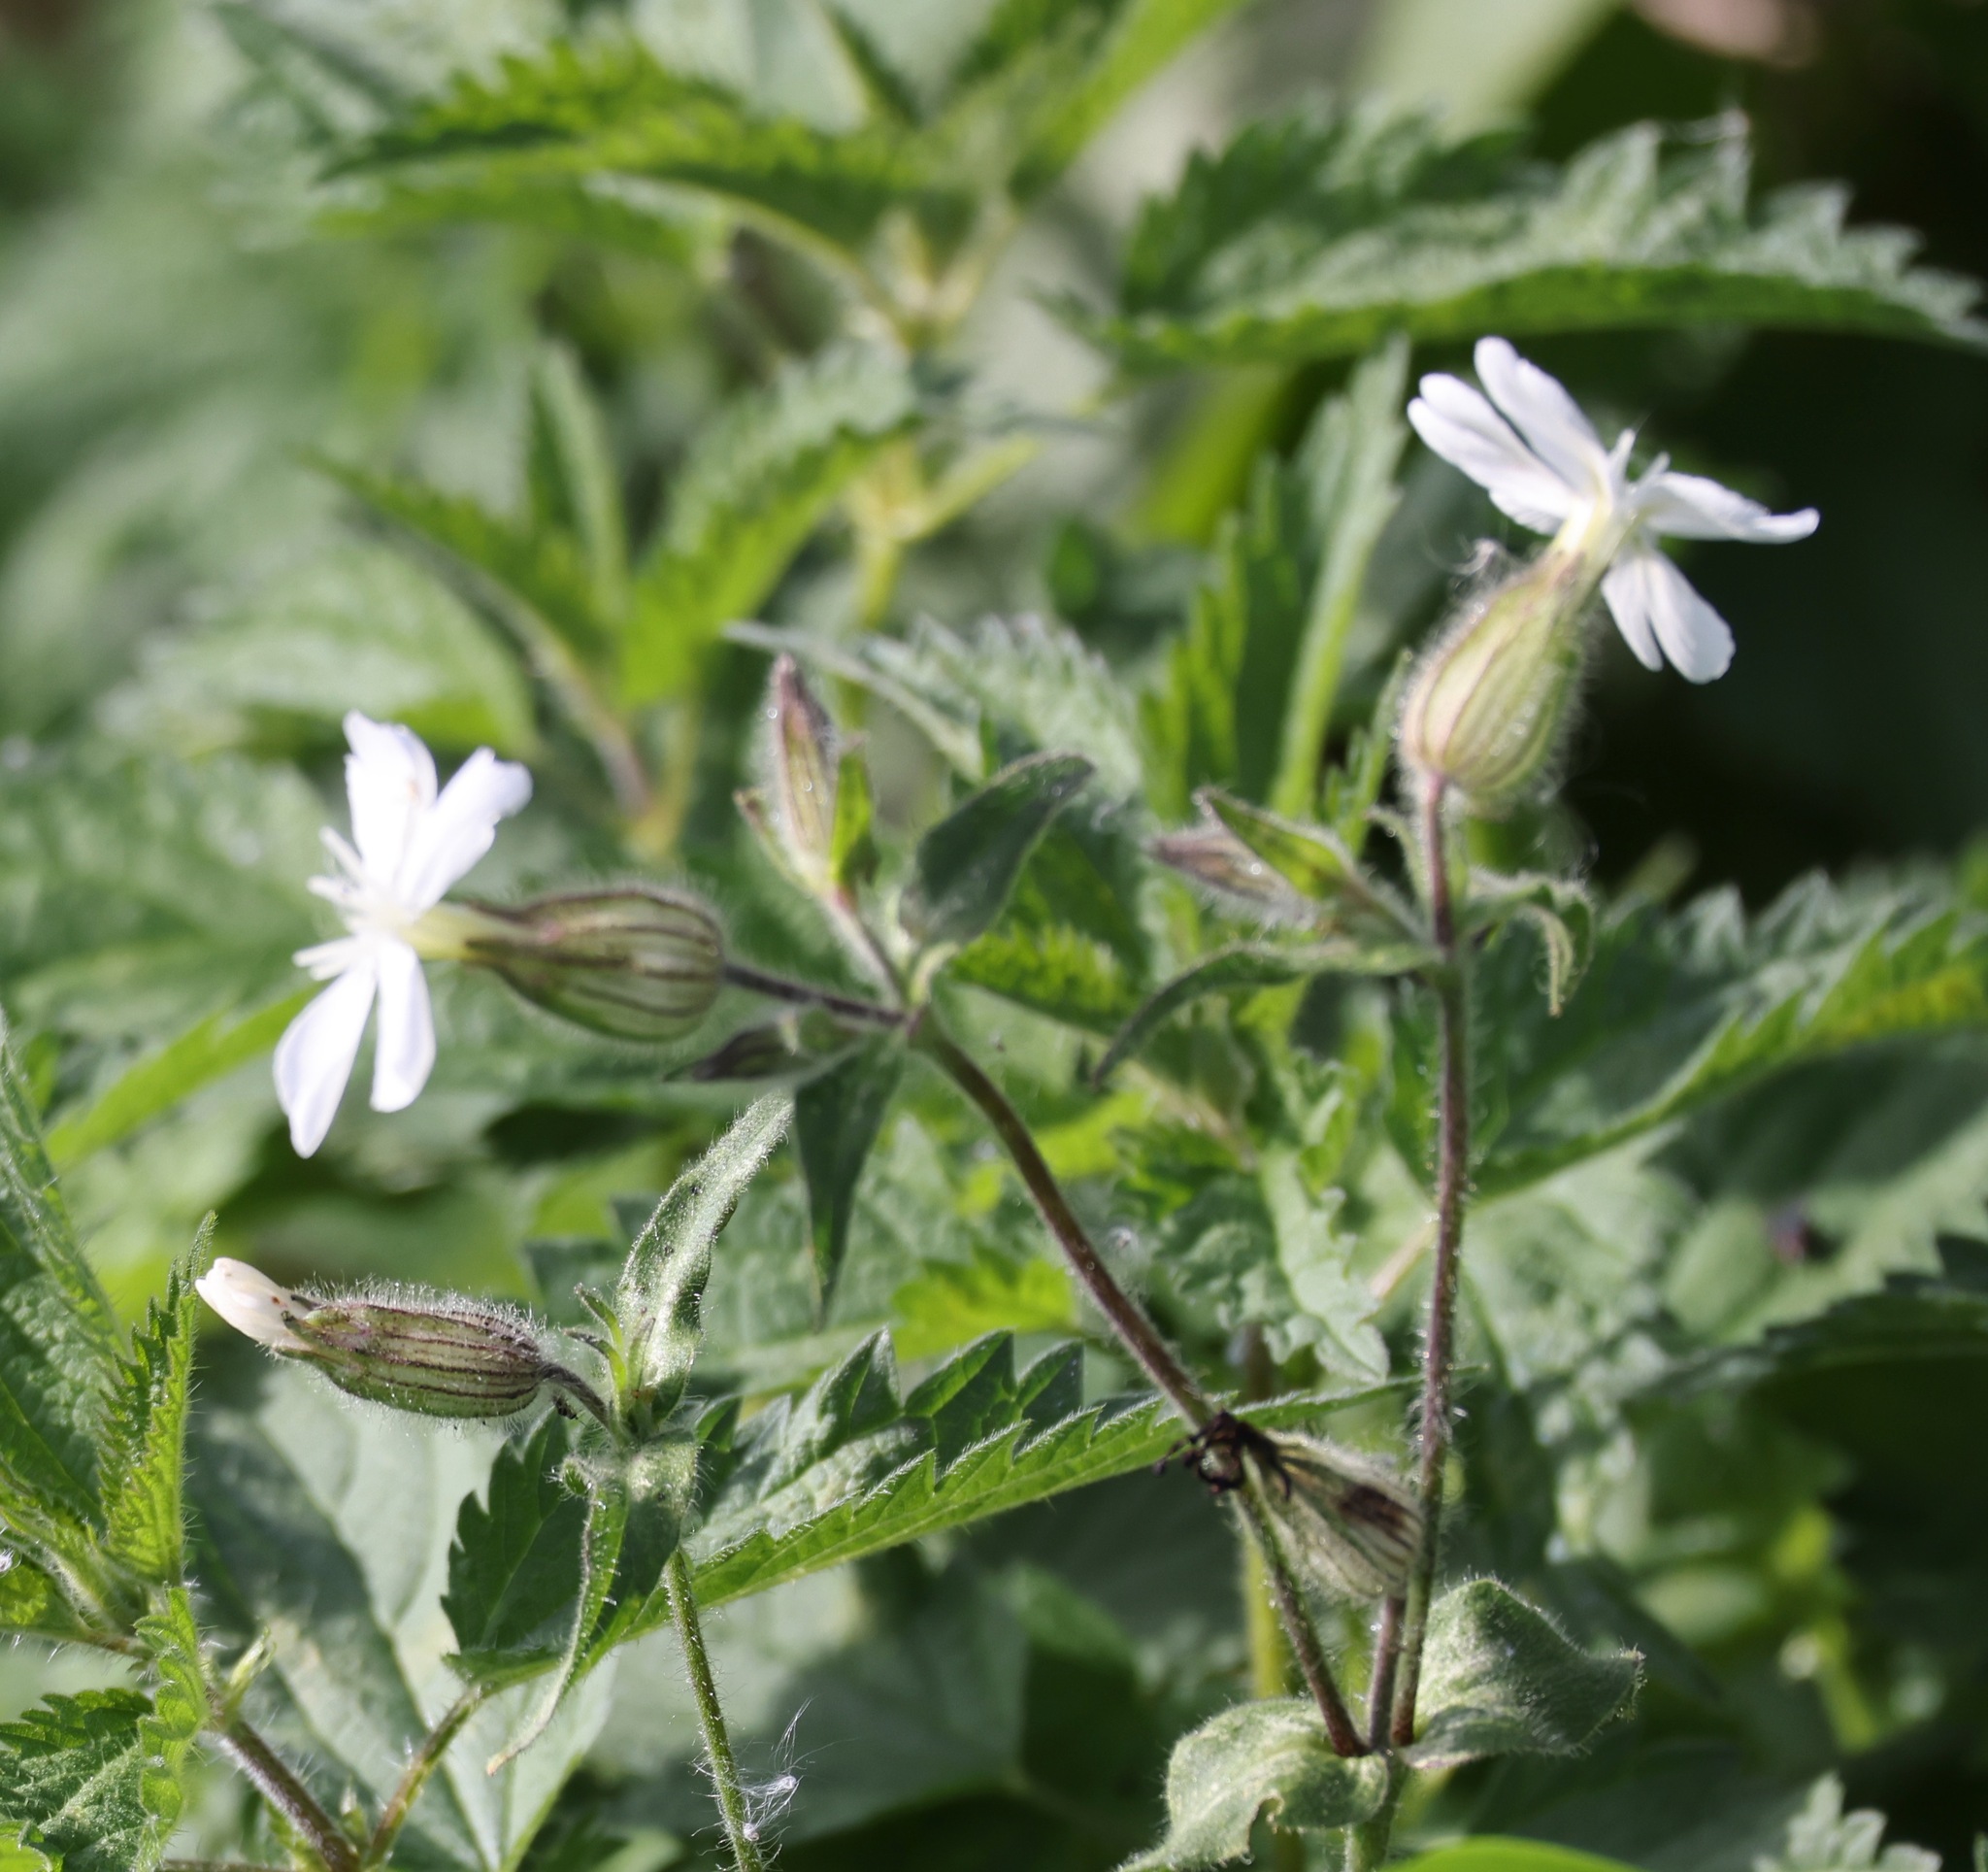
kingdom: Plantae
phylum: Tracheophyta
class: Magnoliopsida
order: Caryophyllales
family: Caryophyllaceae
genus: Silene
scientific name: Silene latifolia
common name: White campion
